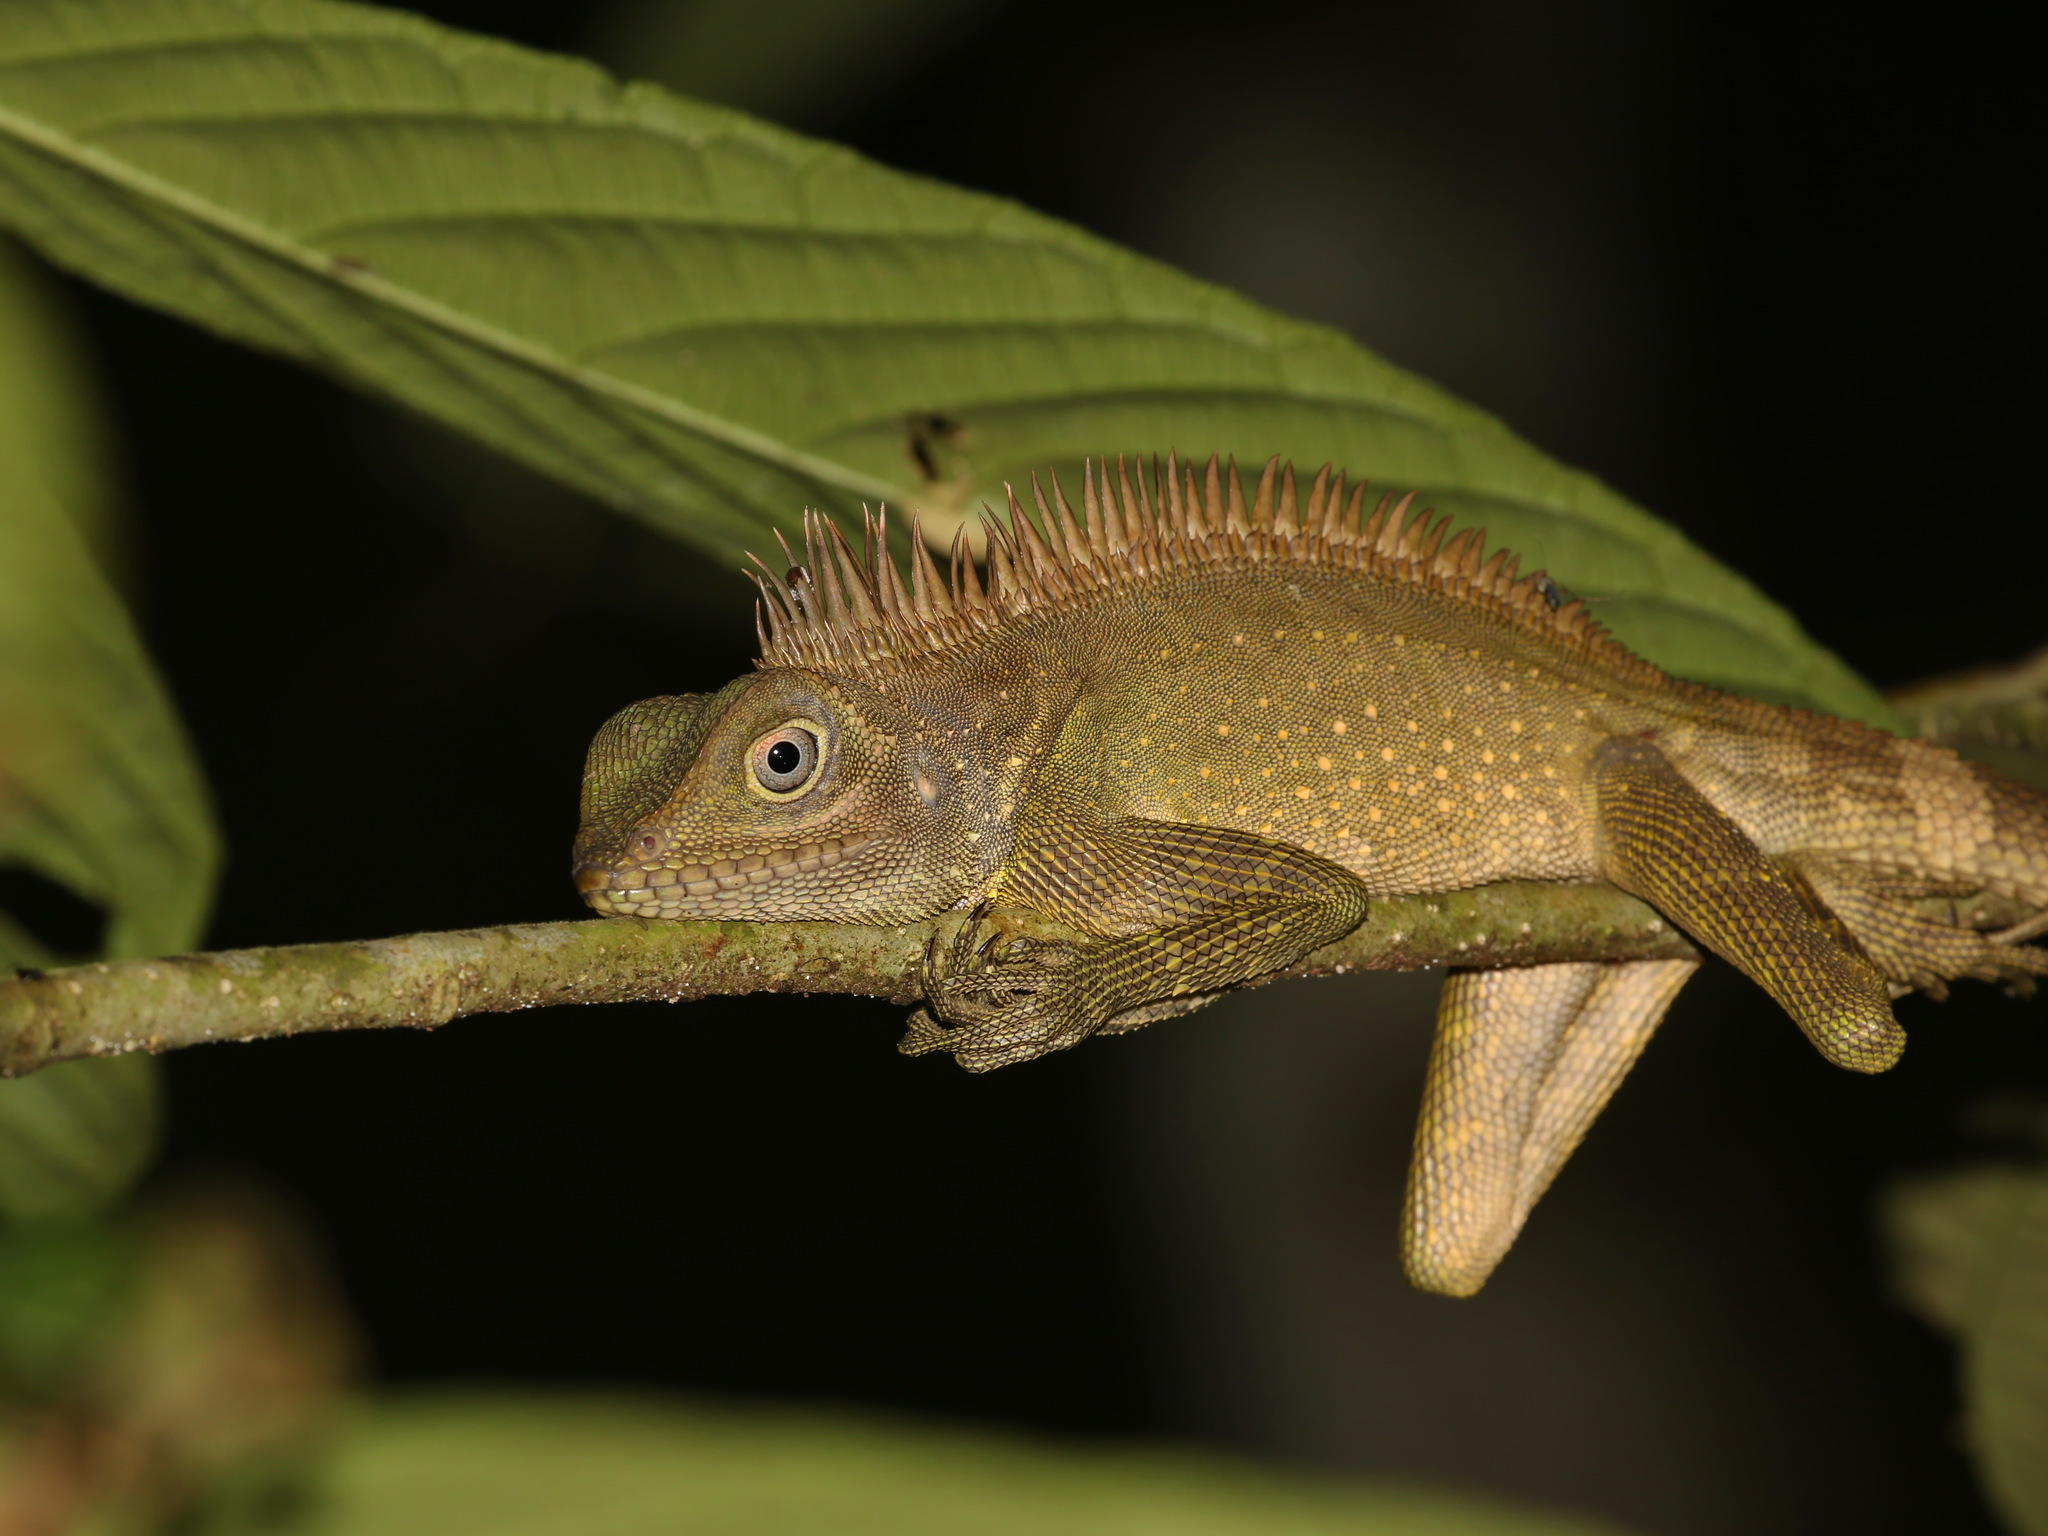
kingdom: Animalia
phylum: Chordata
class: Squamata
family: Agamidae
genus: Gonocephalus
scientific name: Gonocephalus bellii
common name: Bell's anglehead lizard
